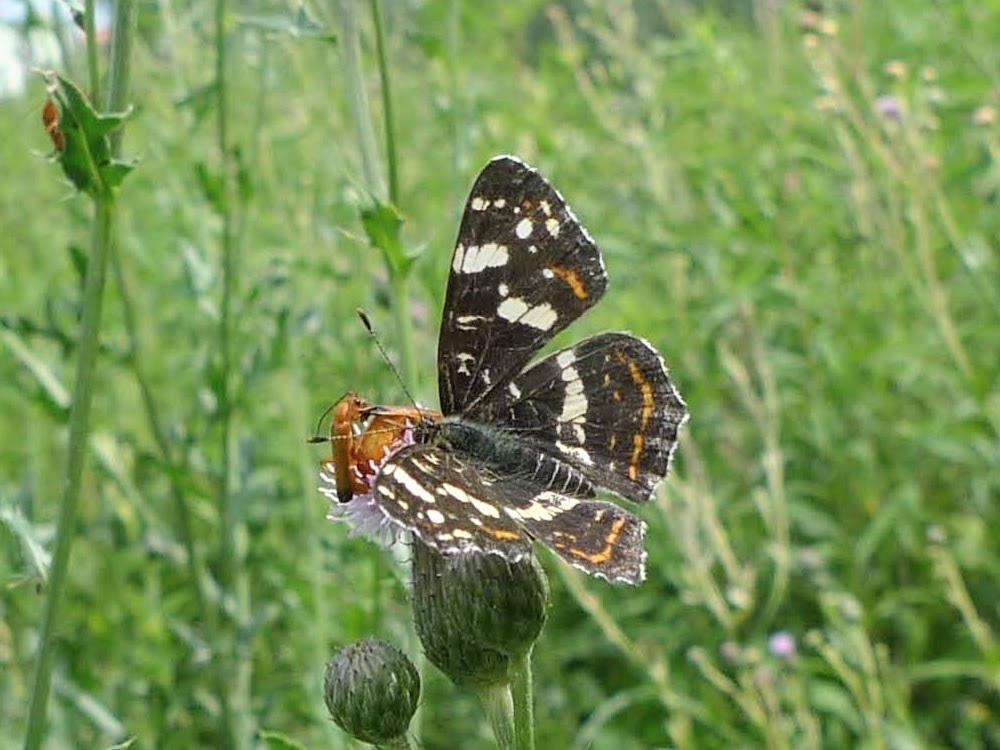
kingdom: Animalia
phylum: Arthropoda
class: Insecta
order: Lepidoptera
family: Nymphalidae
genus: Araschnia
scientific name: Araschnia levana
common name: Map butterfly
